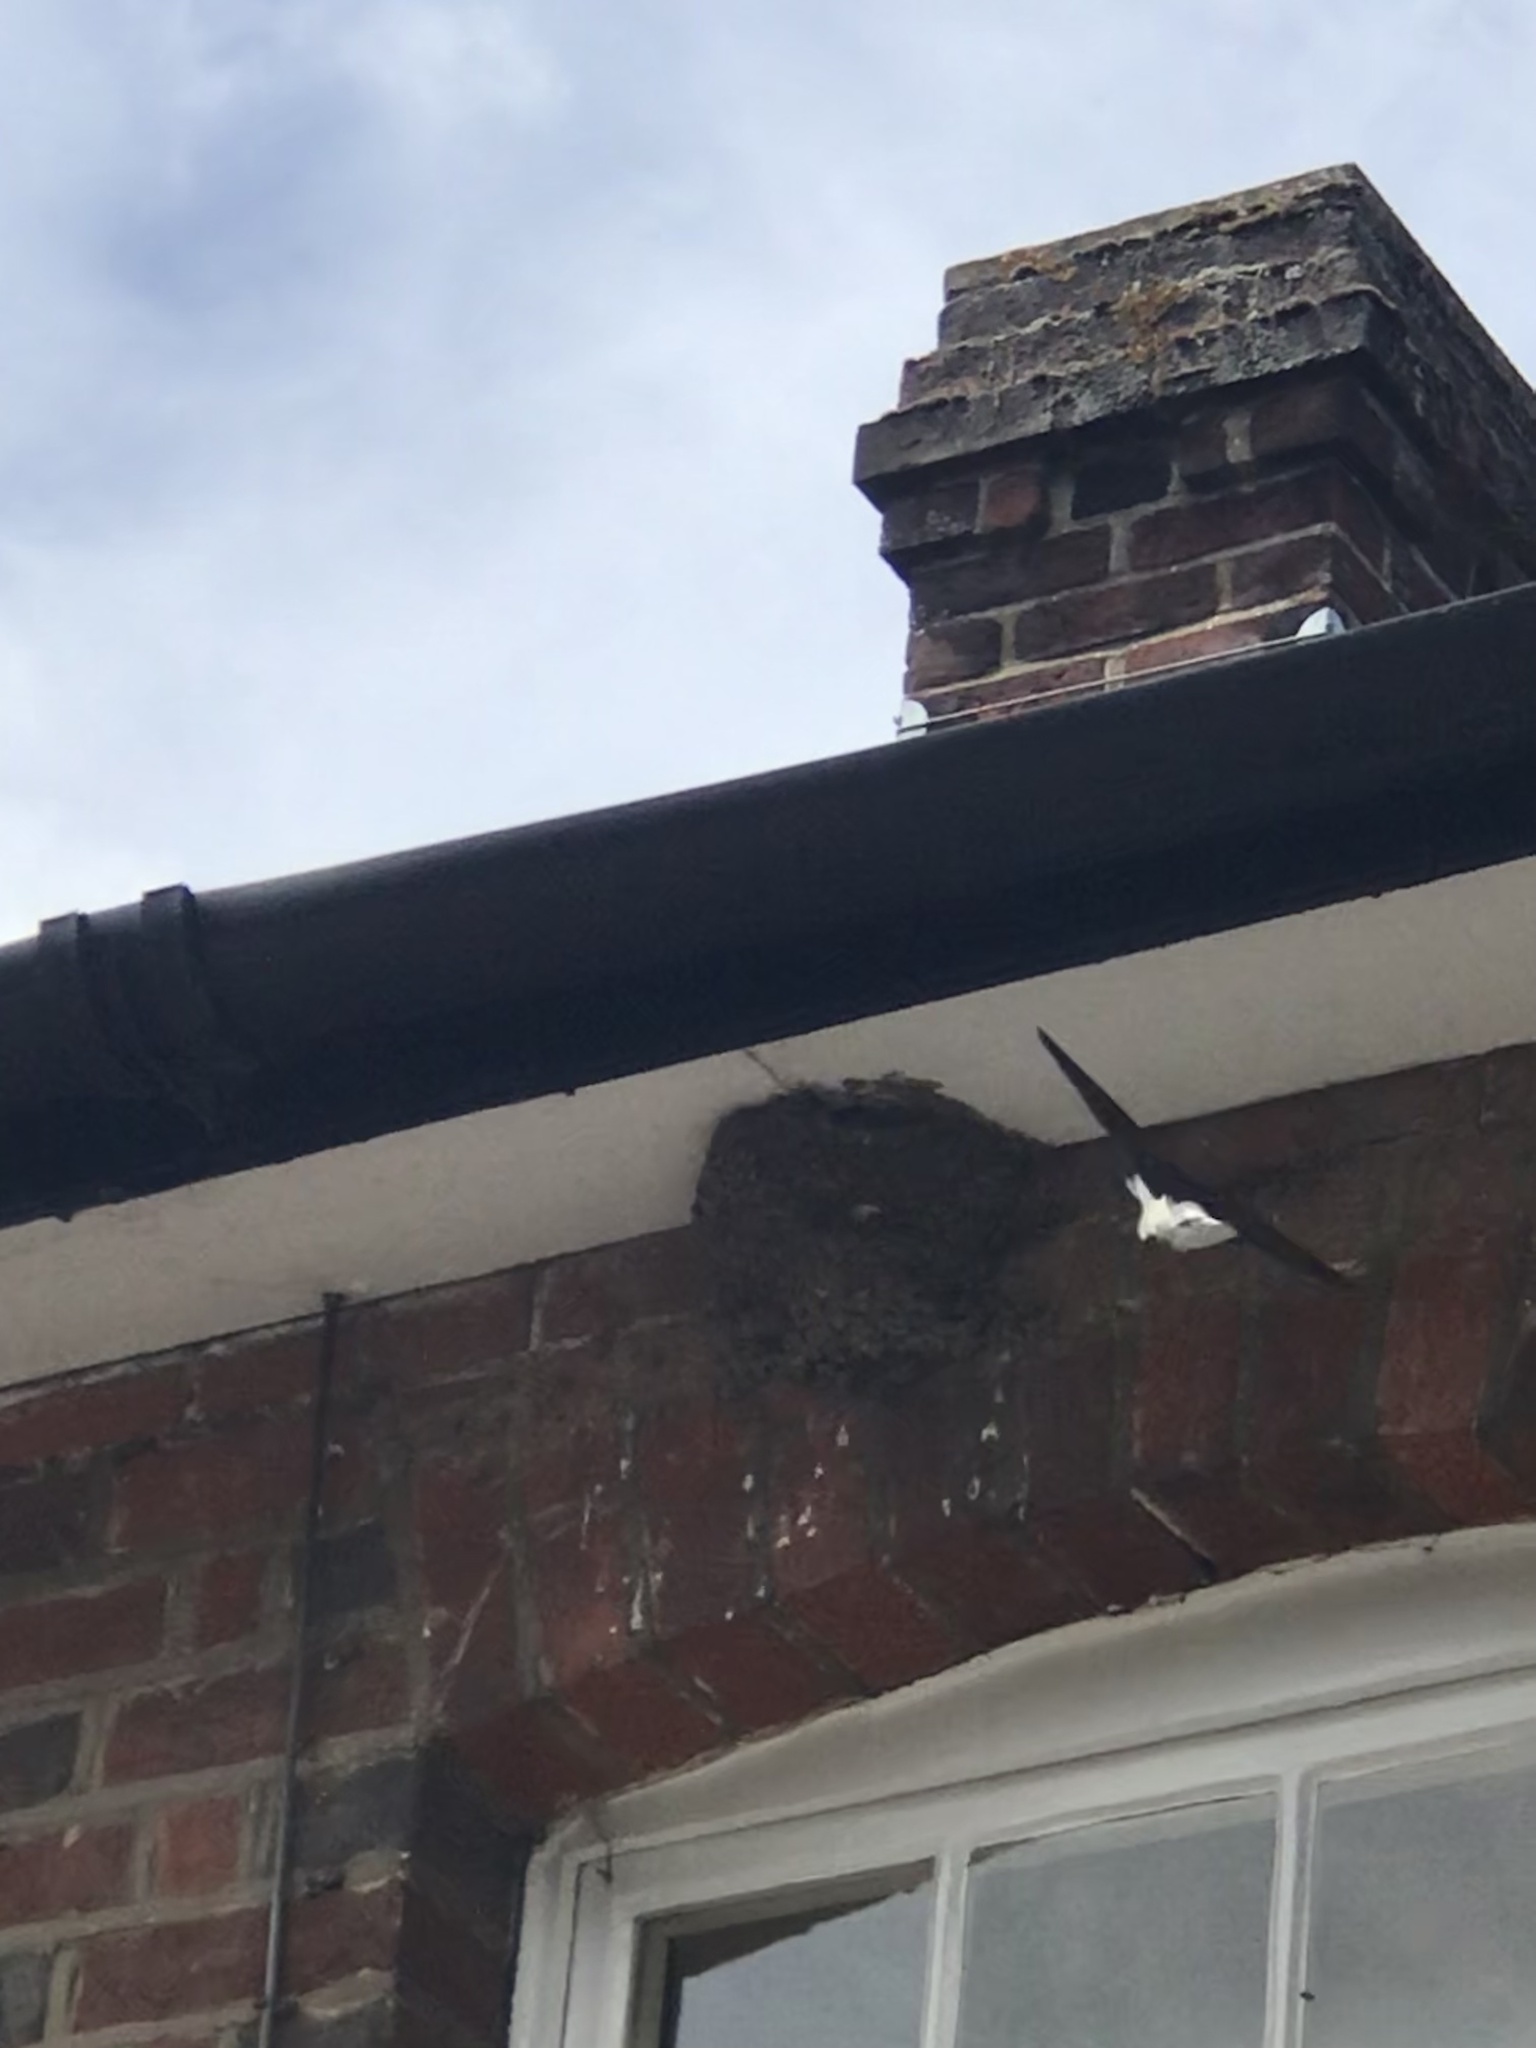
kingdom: Animalia
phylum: Chordata
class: Aves
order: Passeriformes
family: Hirundinidae
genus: Delichon
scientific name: Delichon urbicum
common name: Common house martin
